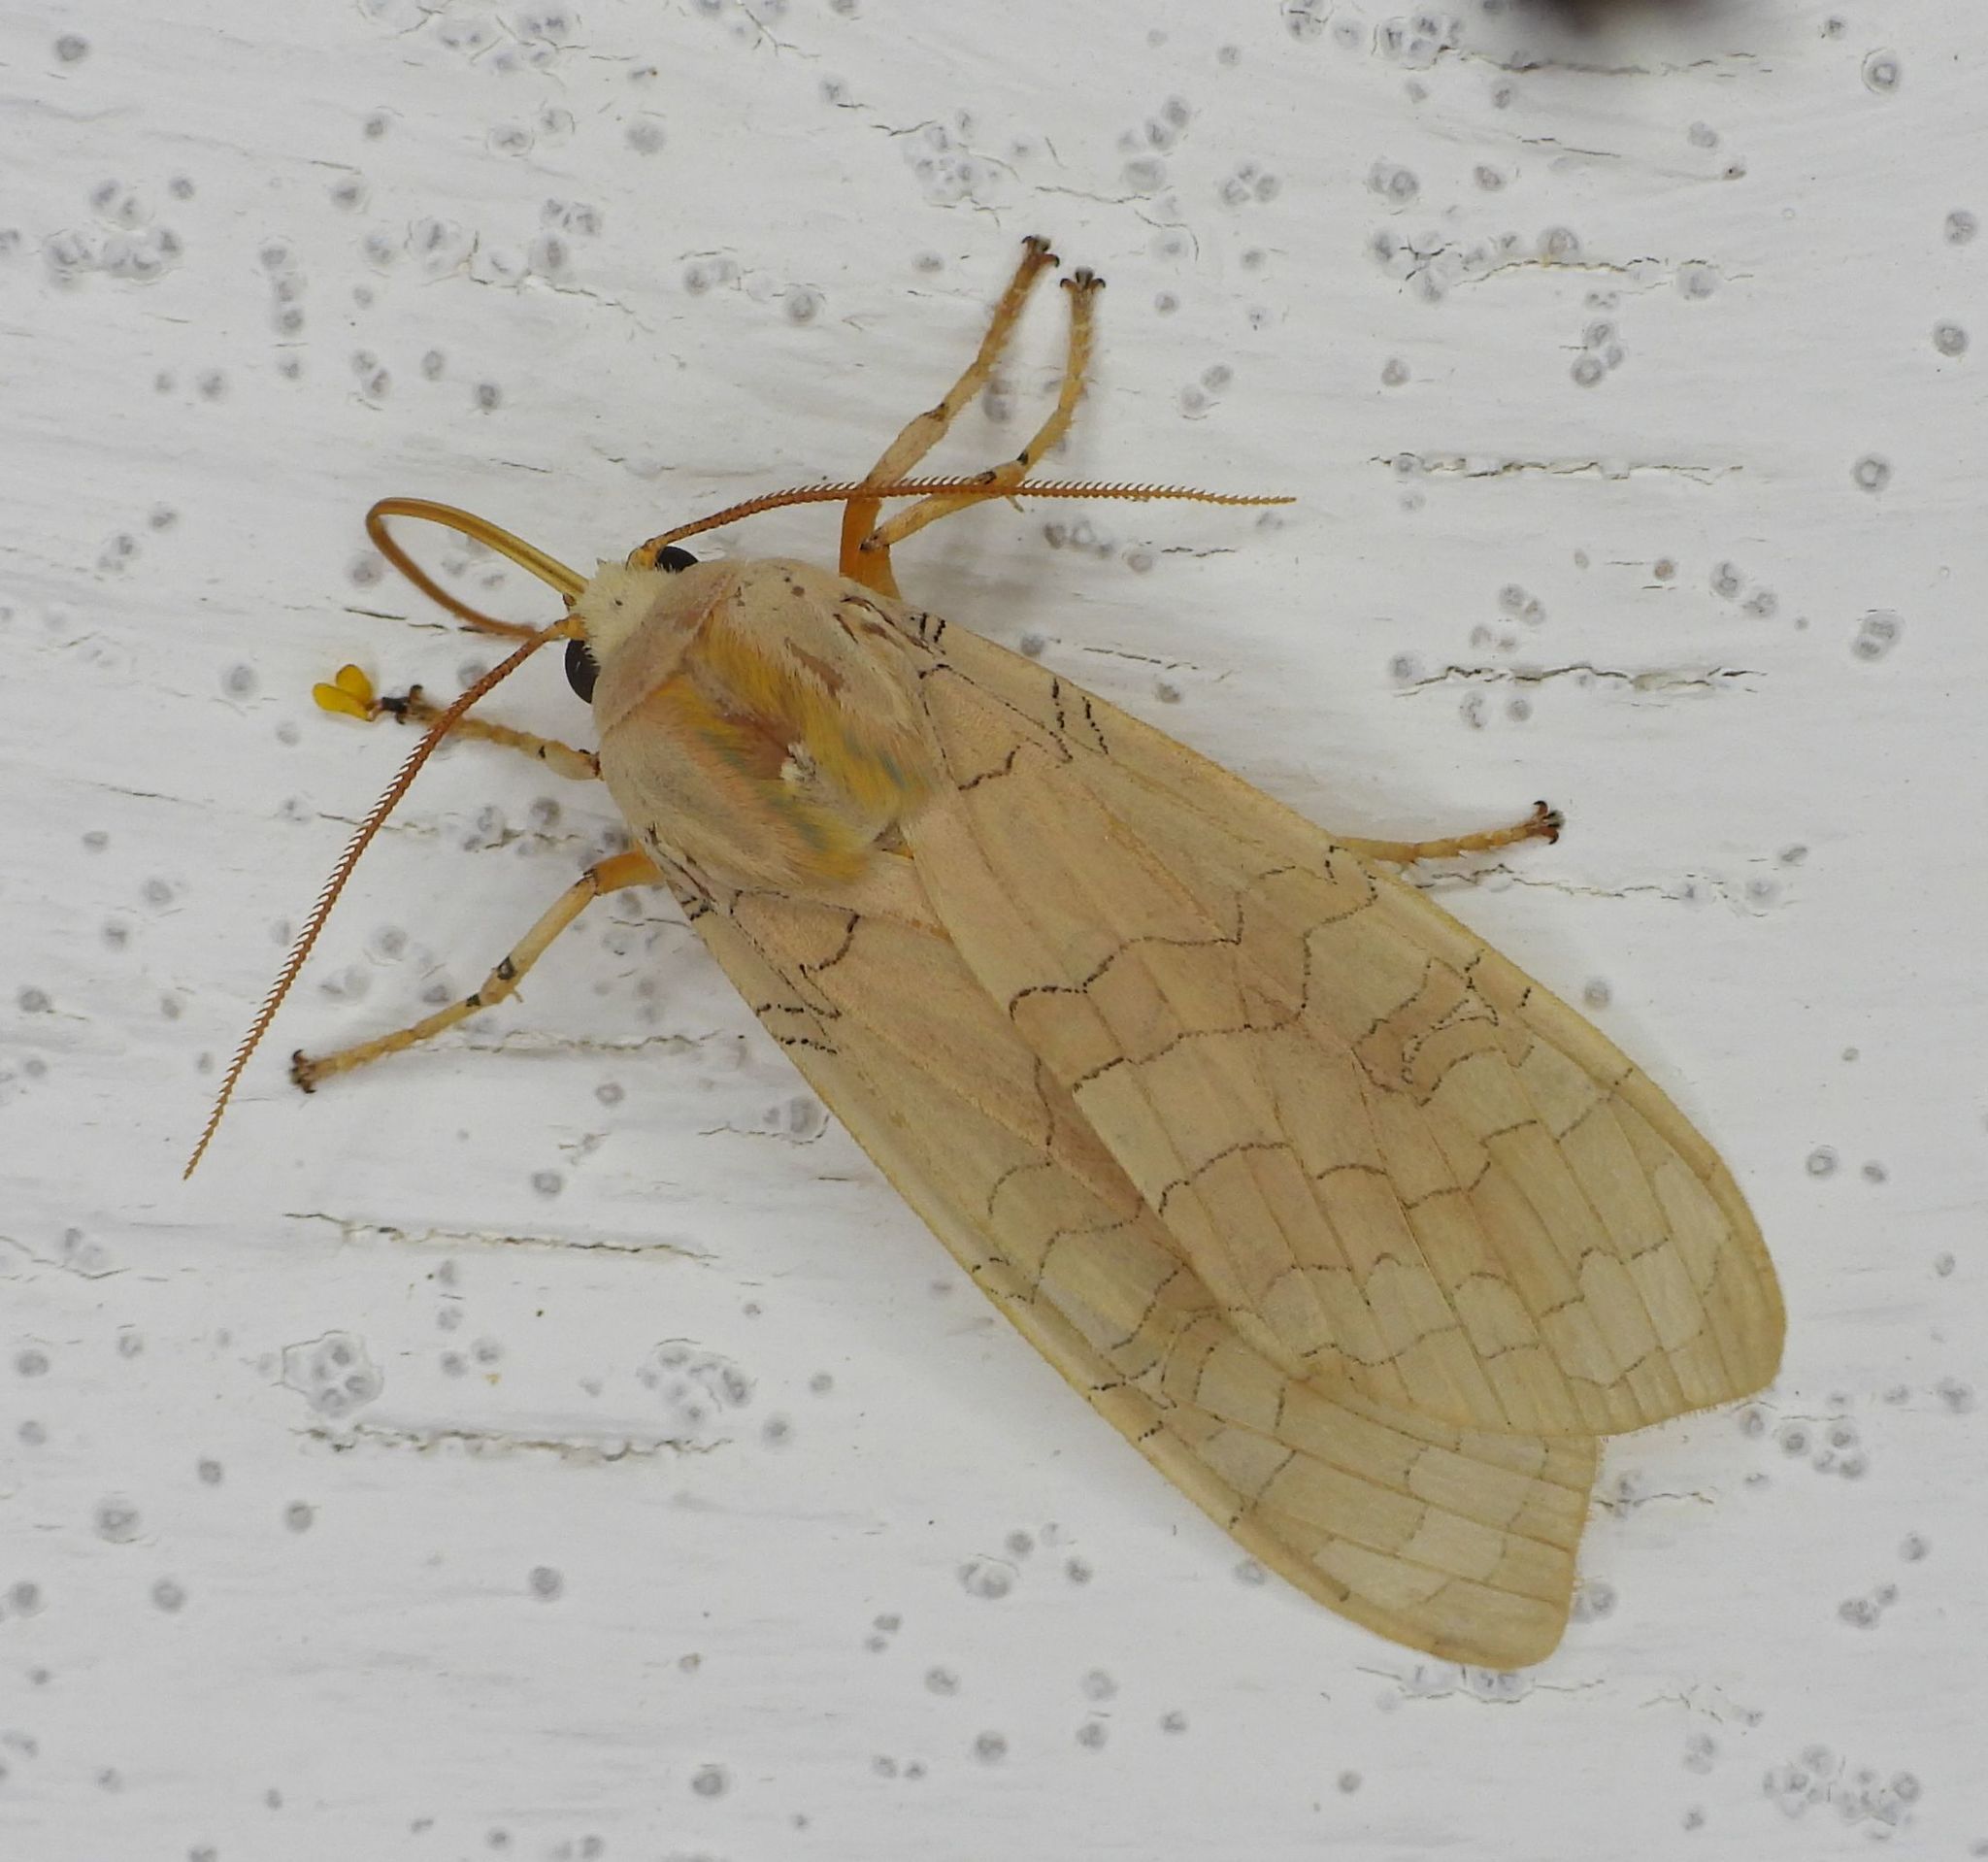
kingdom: Animalia
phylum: Arthropoda
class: Insecta
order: Lepidoptera
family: Erebidae
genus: Halysidota
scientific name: Halysidota tessellaris
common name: Banded tussock moth
